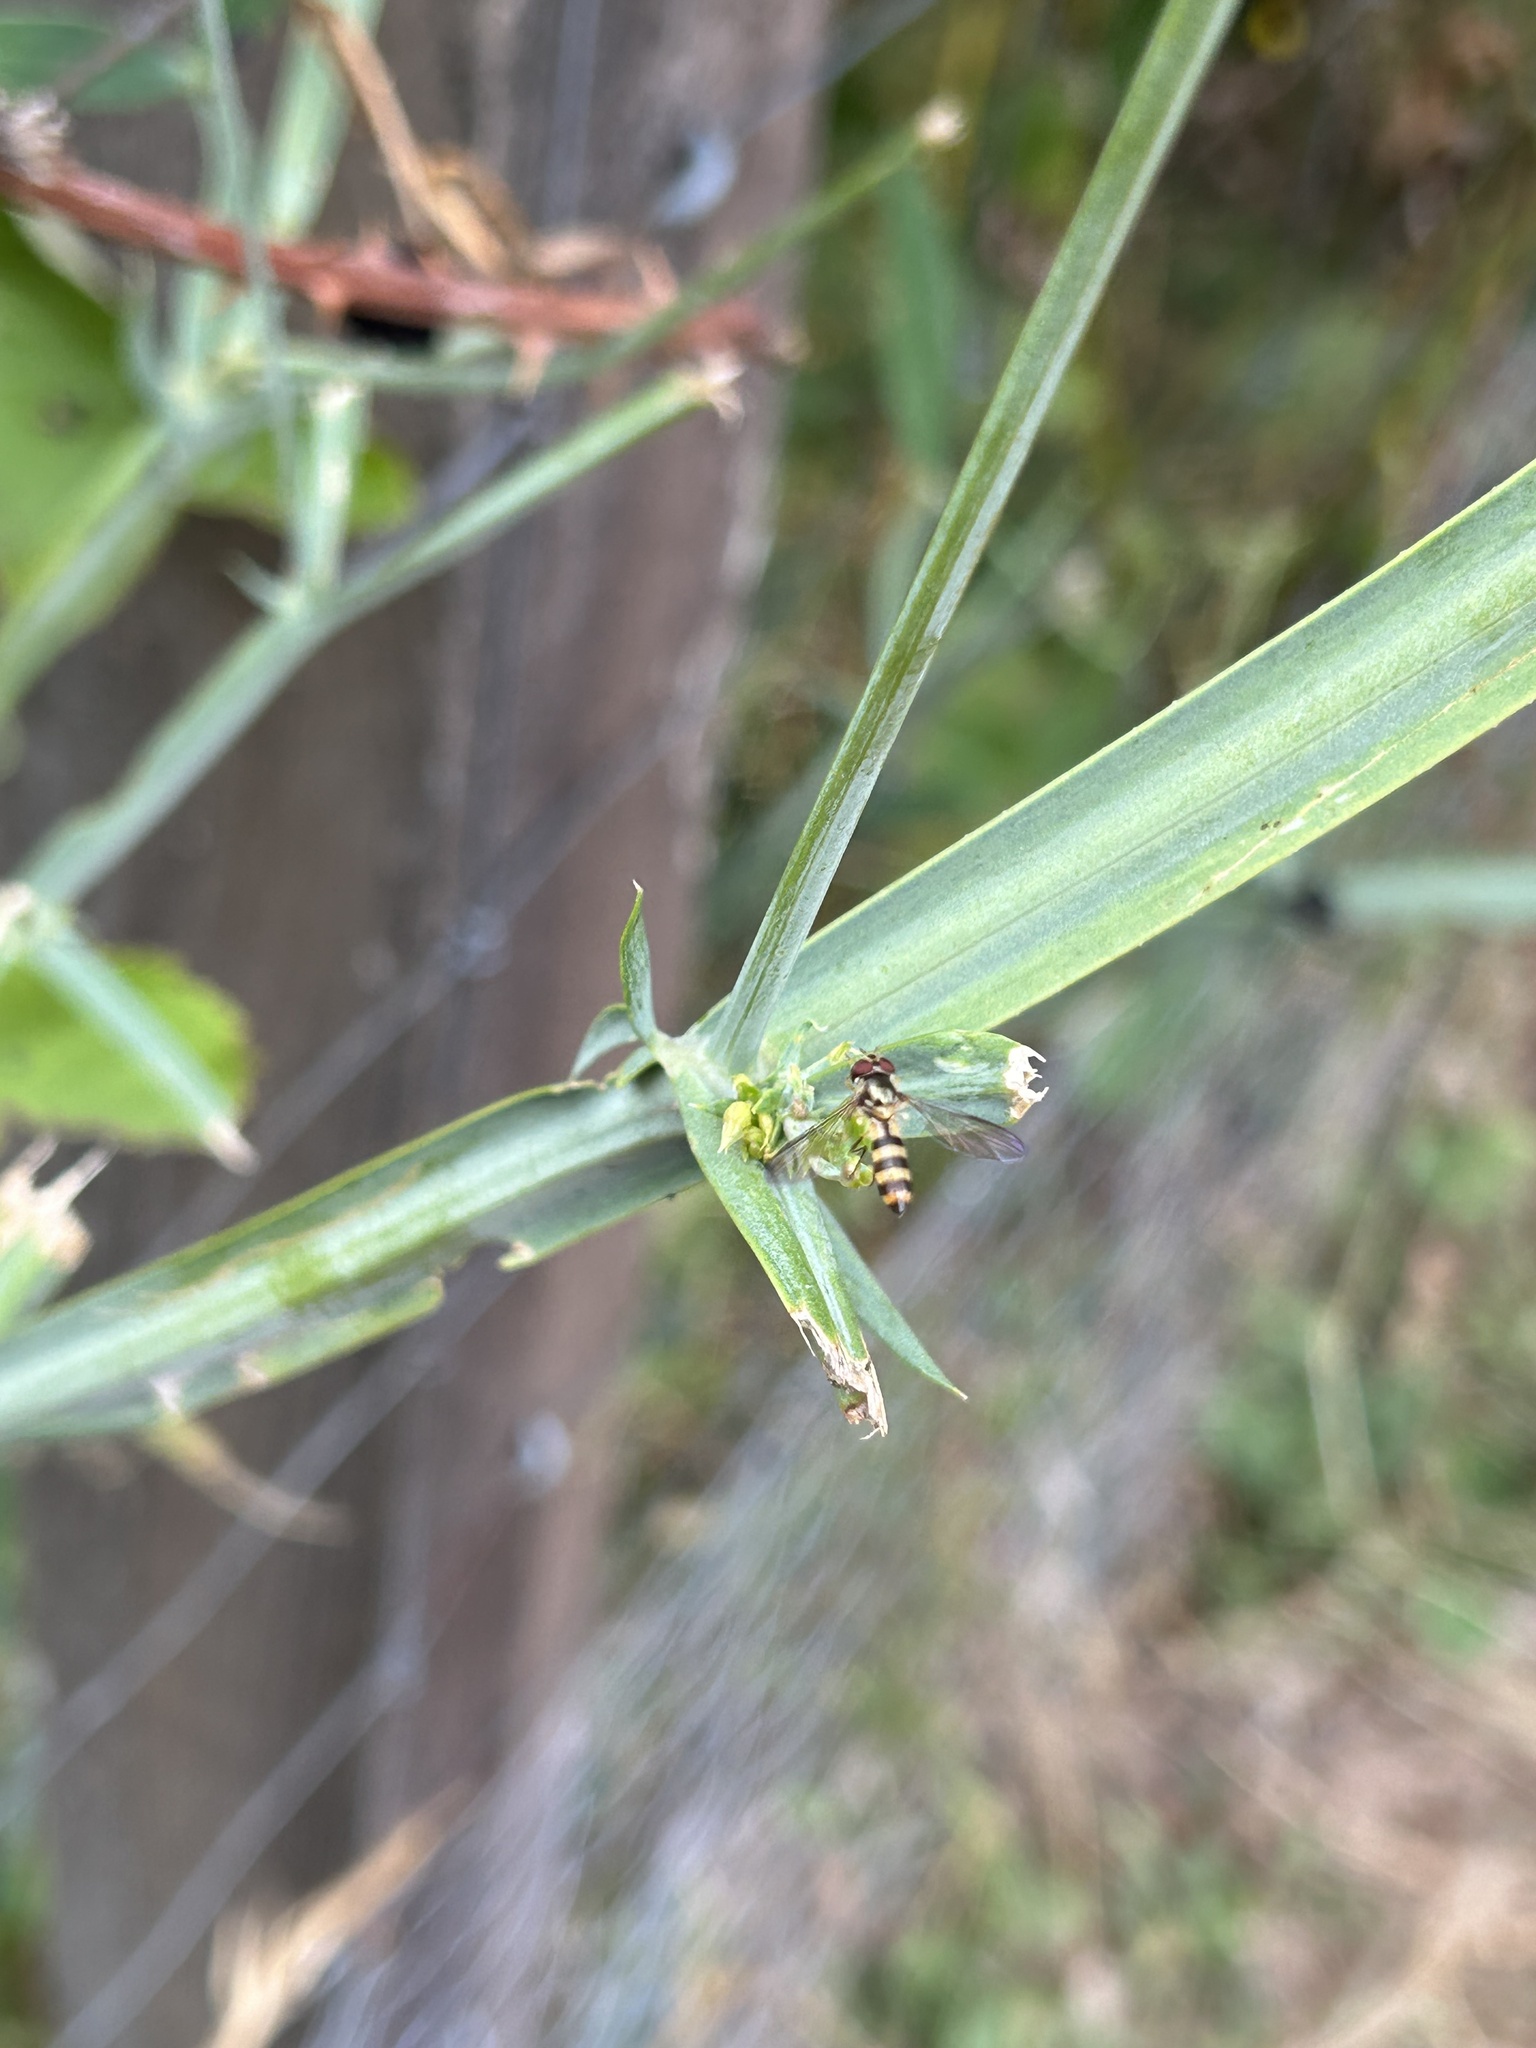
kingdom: Animalia
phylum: Arthropoda
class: Insecta
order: Diptera
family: Syrphidae
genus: Meliscaeva
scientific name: Meliscaeva cinctella
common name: American thintail fly
